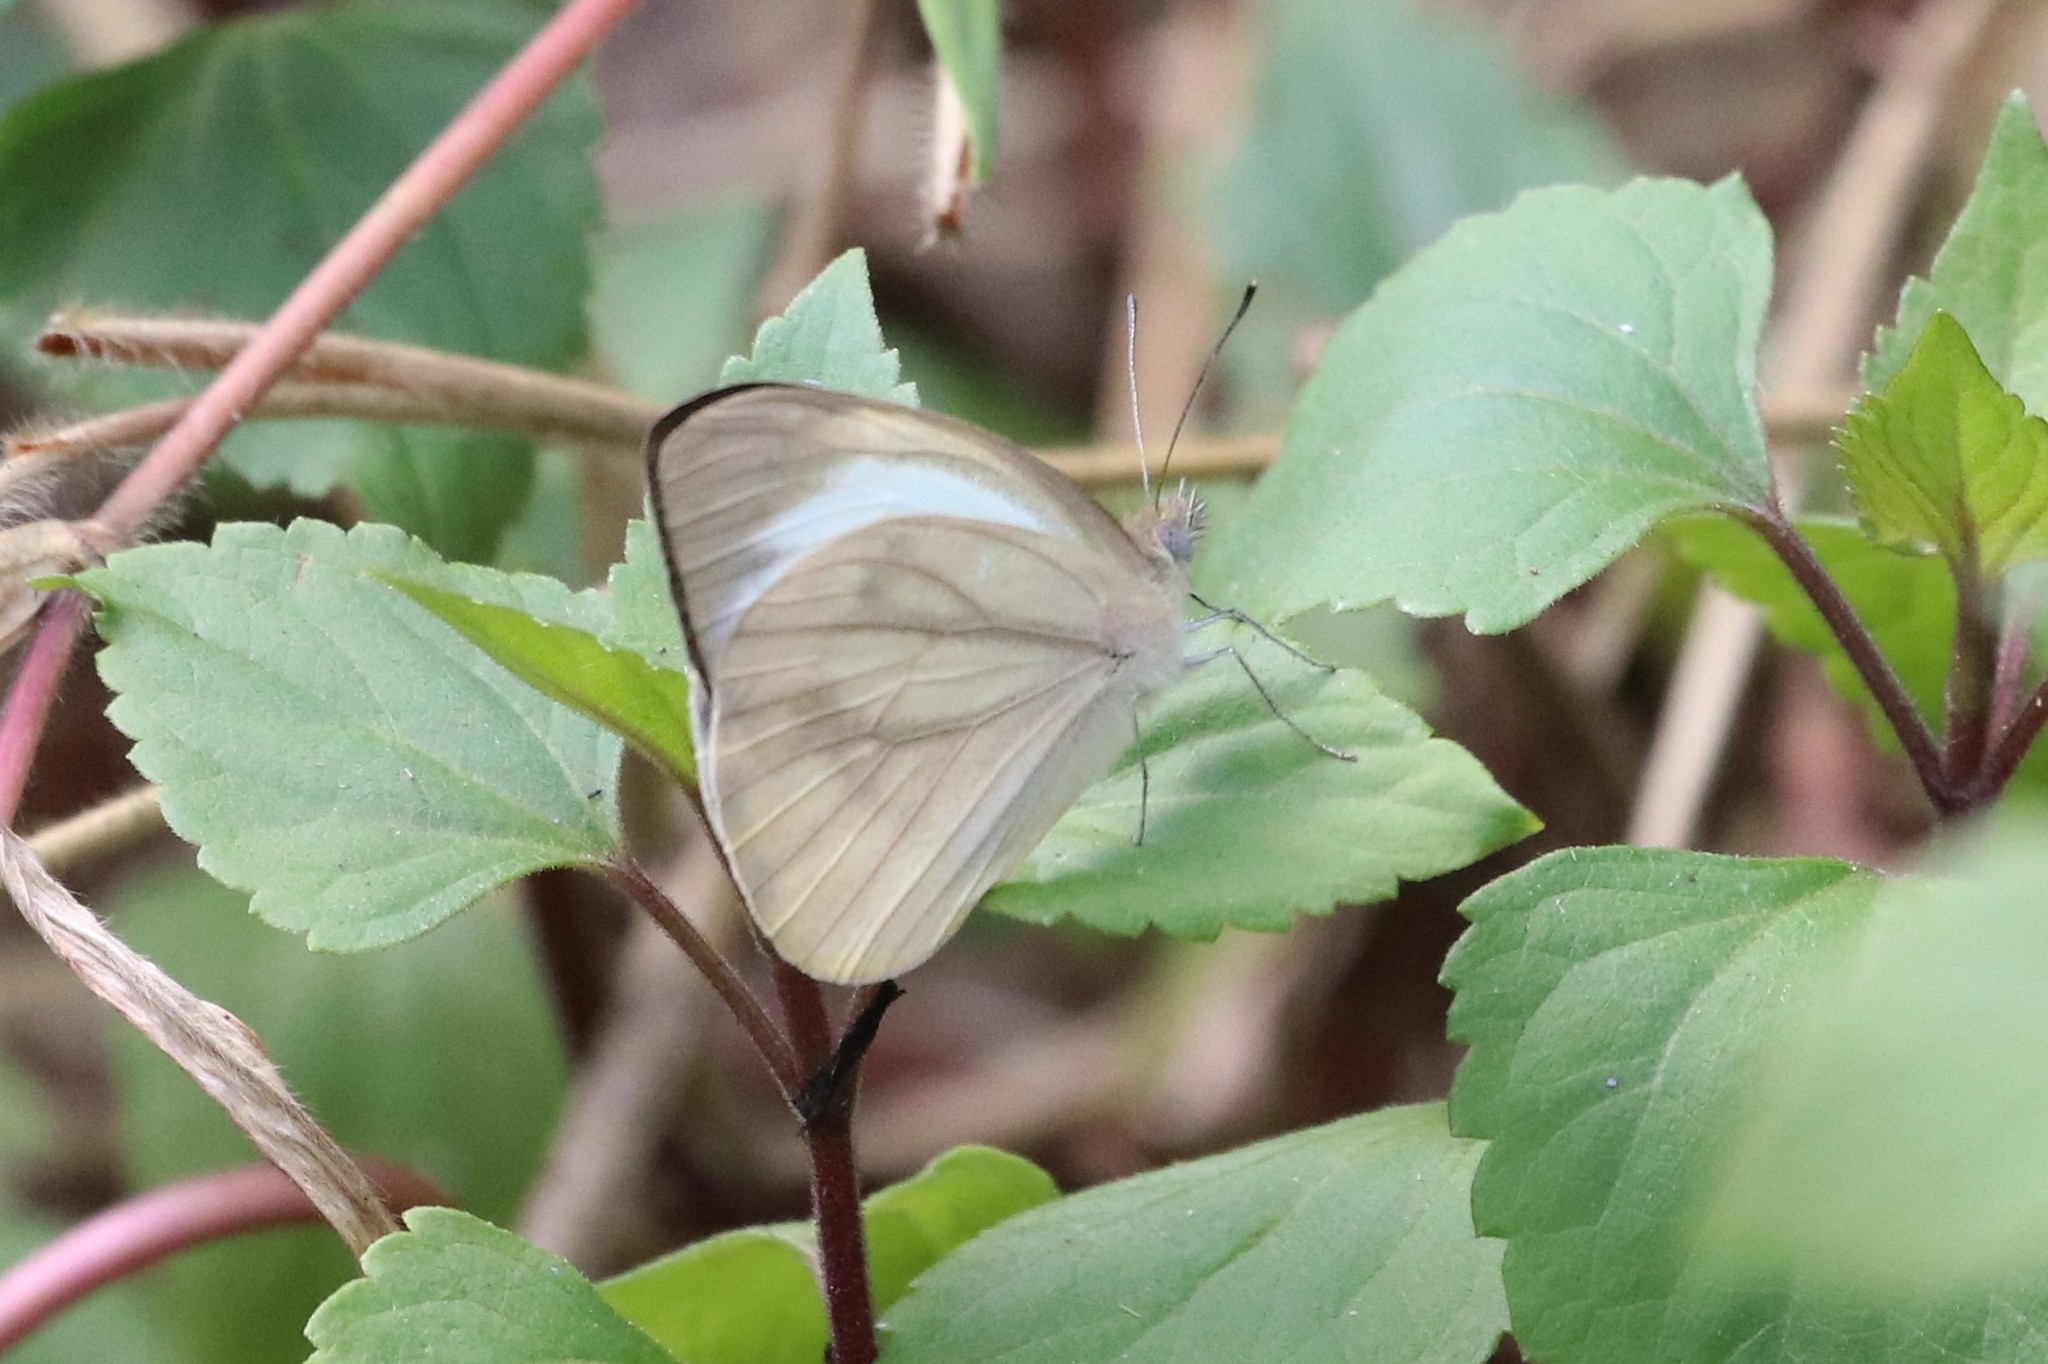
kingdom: Animalia
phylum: Arthropoda
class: Insecta
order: Lepidoptera
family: Pieridae
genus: Appias
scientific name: Appias libythea
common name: Striped albatross
